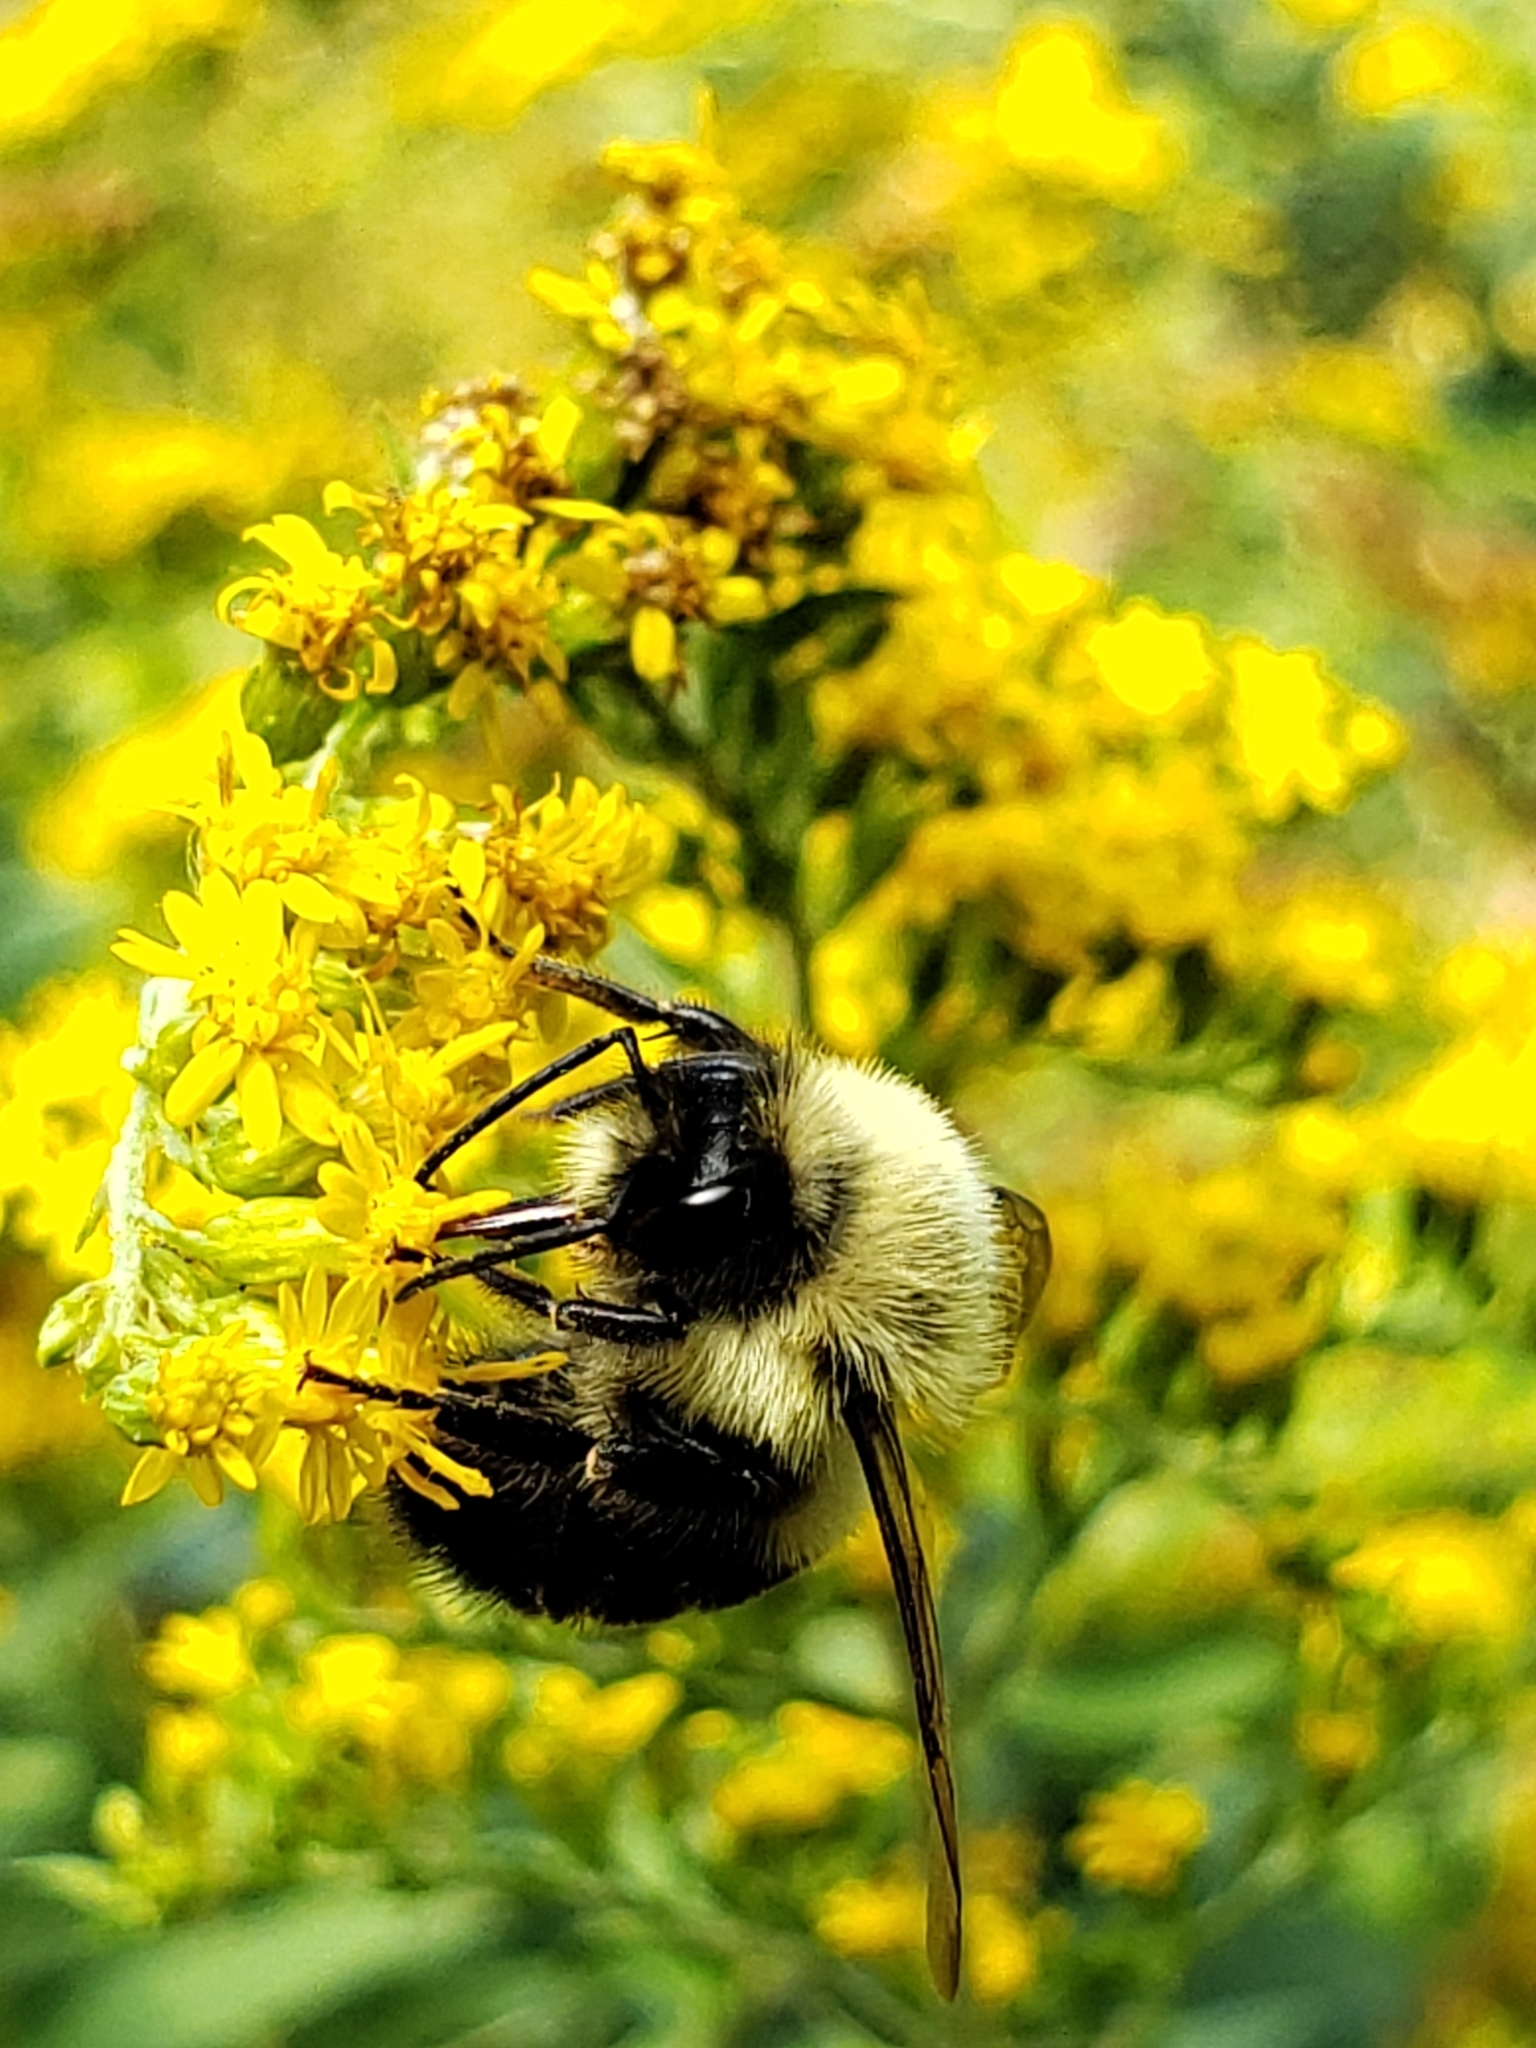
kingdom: Animalia
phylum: Arthropoda
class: Insecta
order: Hymenoptera
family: Apidae
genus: Bombus
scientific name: Bombus impatiens
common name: Common eastern bumble bee
